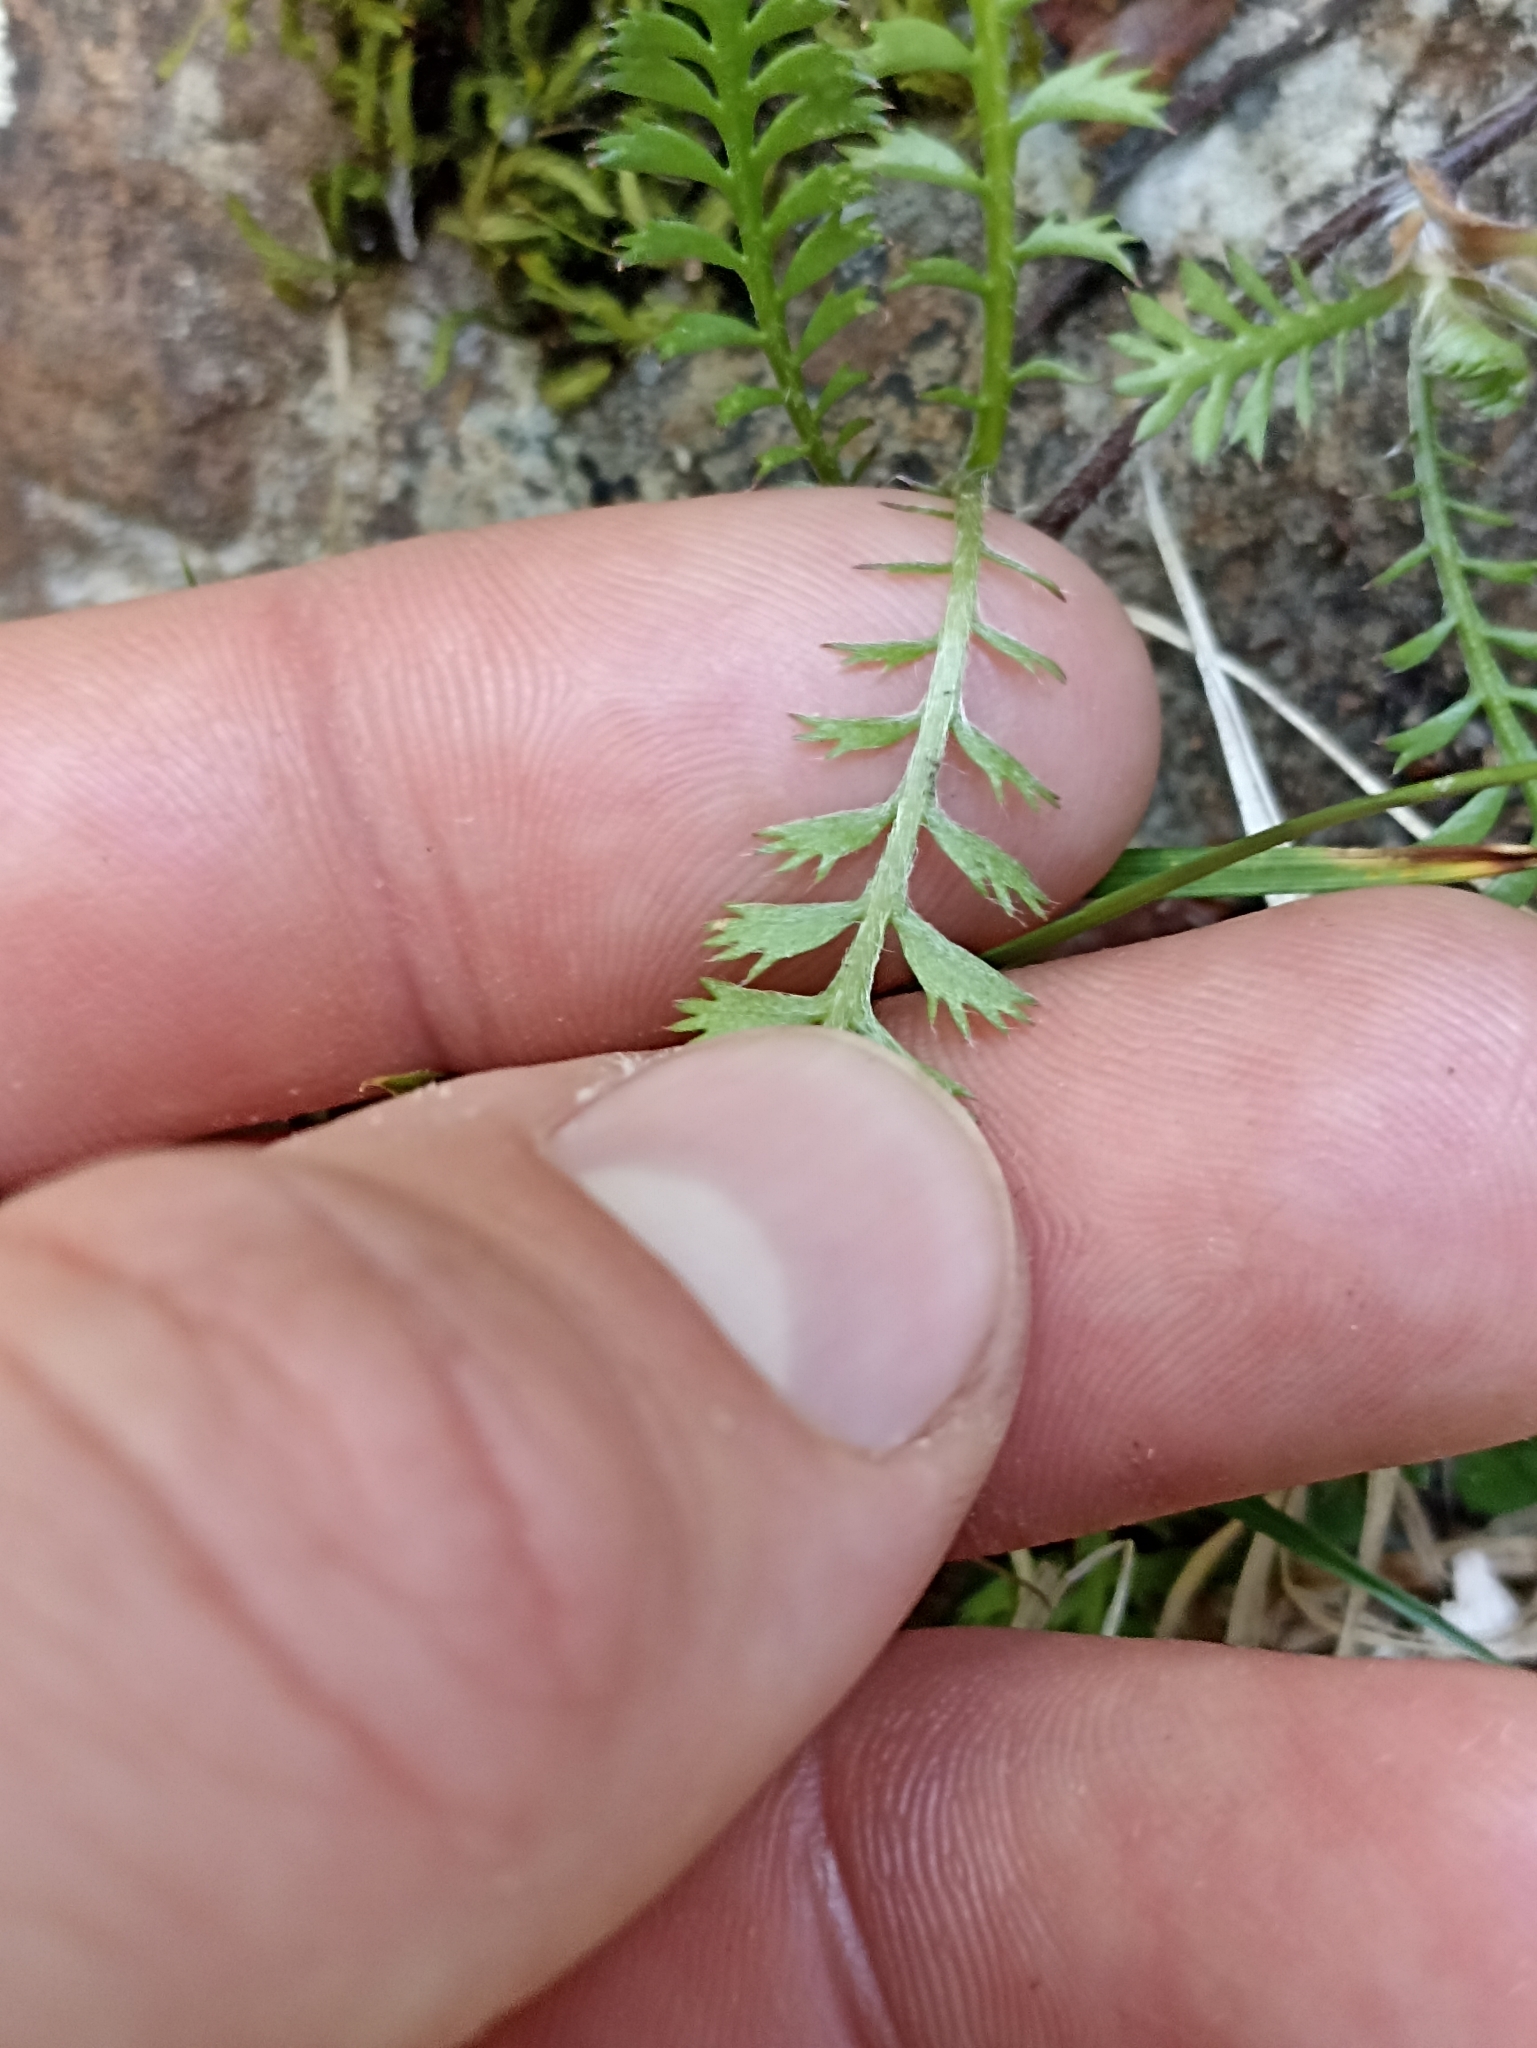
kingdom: Plantae
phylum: Tracheophyta
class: Magnoliopsida
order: Asterales
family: Asteraceae
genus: Leptinella
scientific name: Leptinella squalida
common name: New zealand brass-buttons
